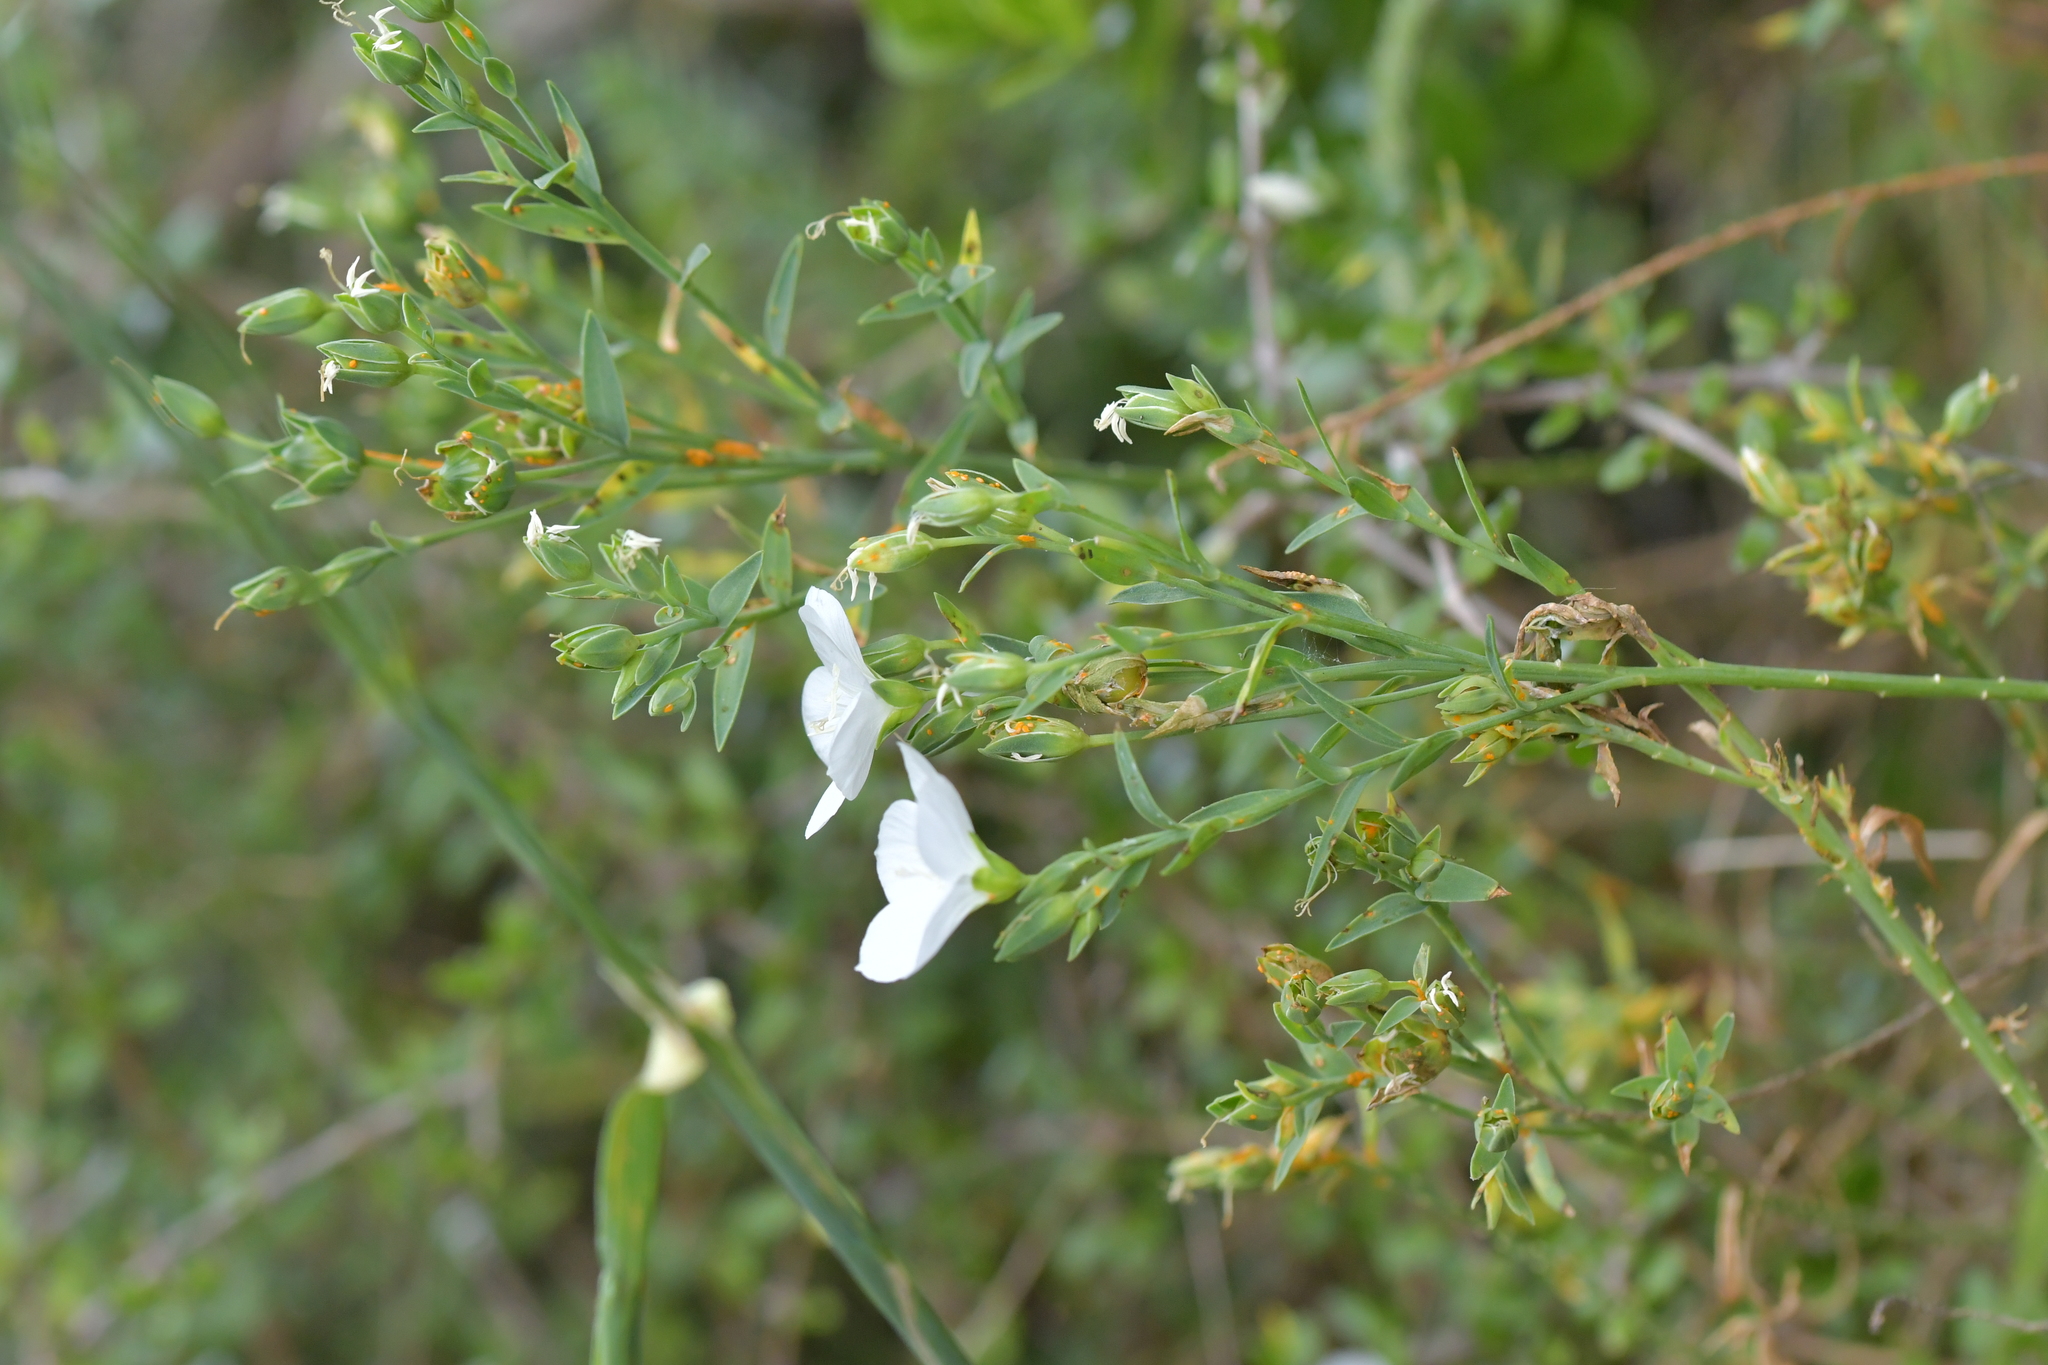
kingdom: Fungi
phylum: Basidiomycota
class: Pucciniomycetes
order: Pucciniales
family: Melampsoraceae
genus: Melampsora
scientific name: Melampsora lini
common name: Flax rust
